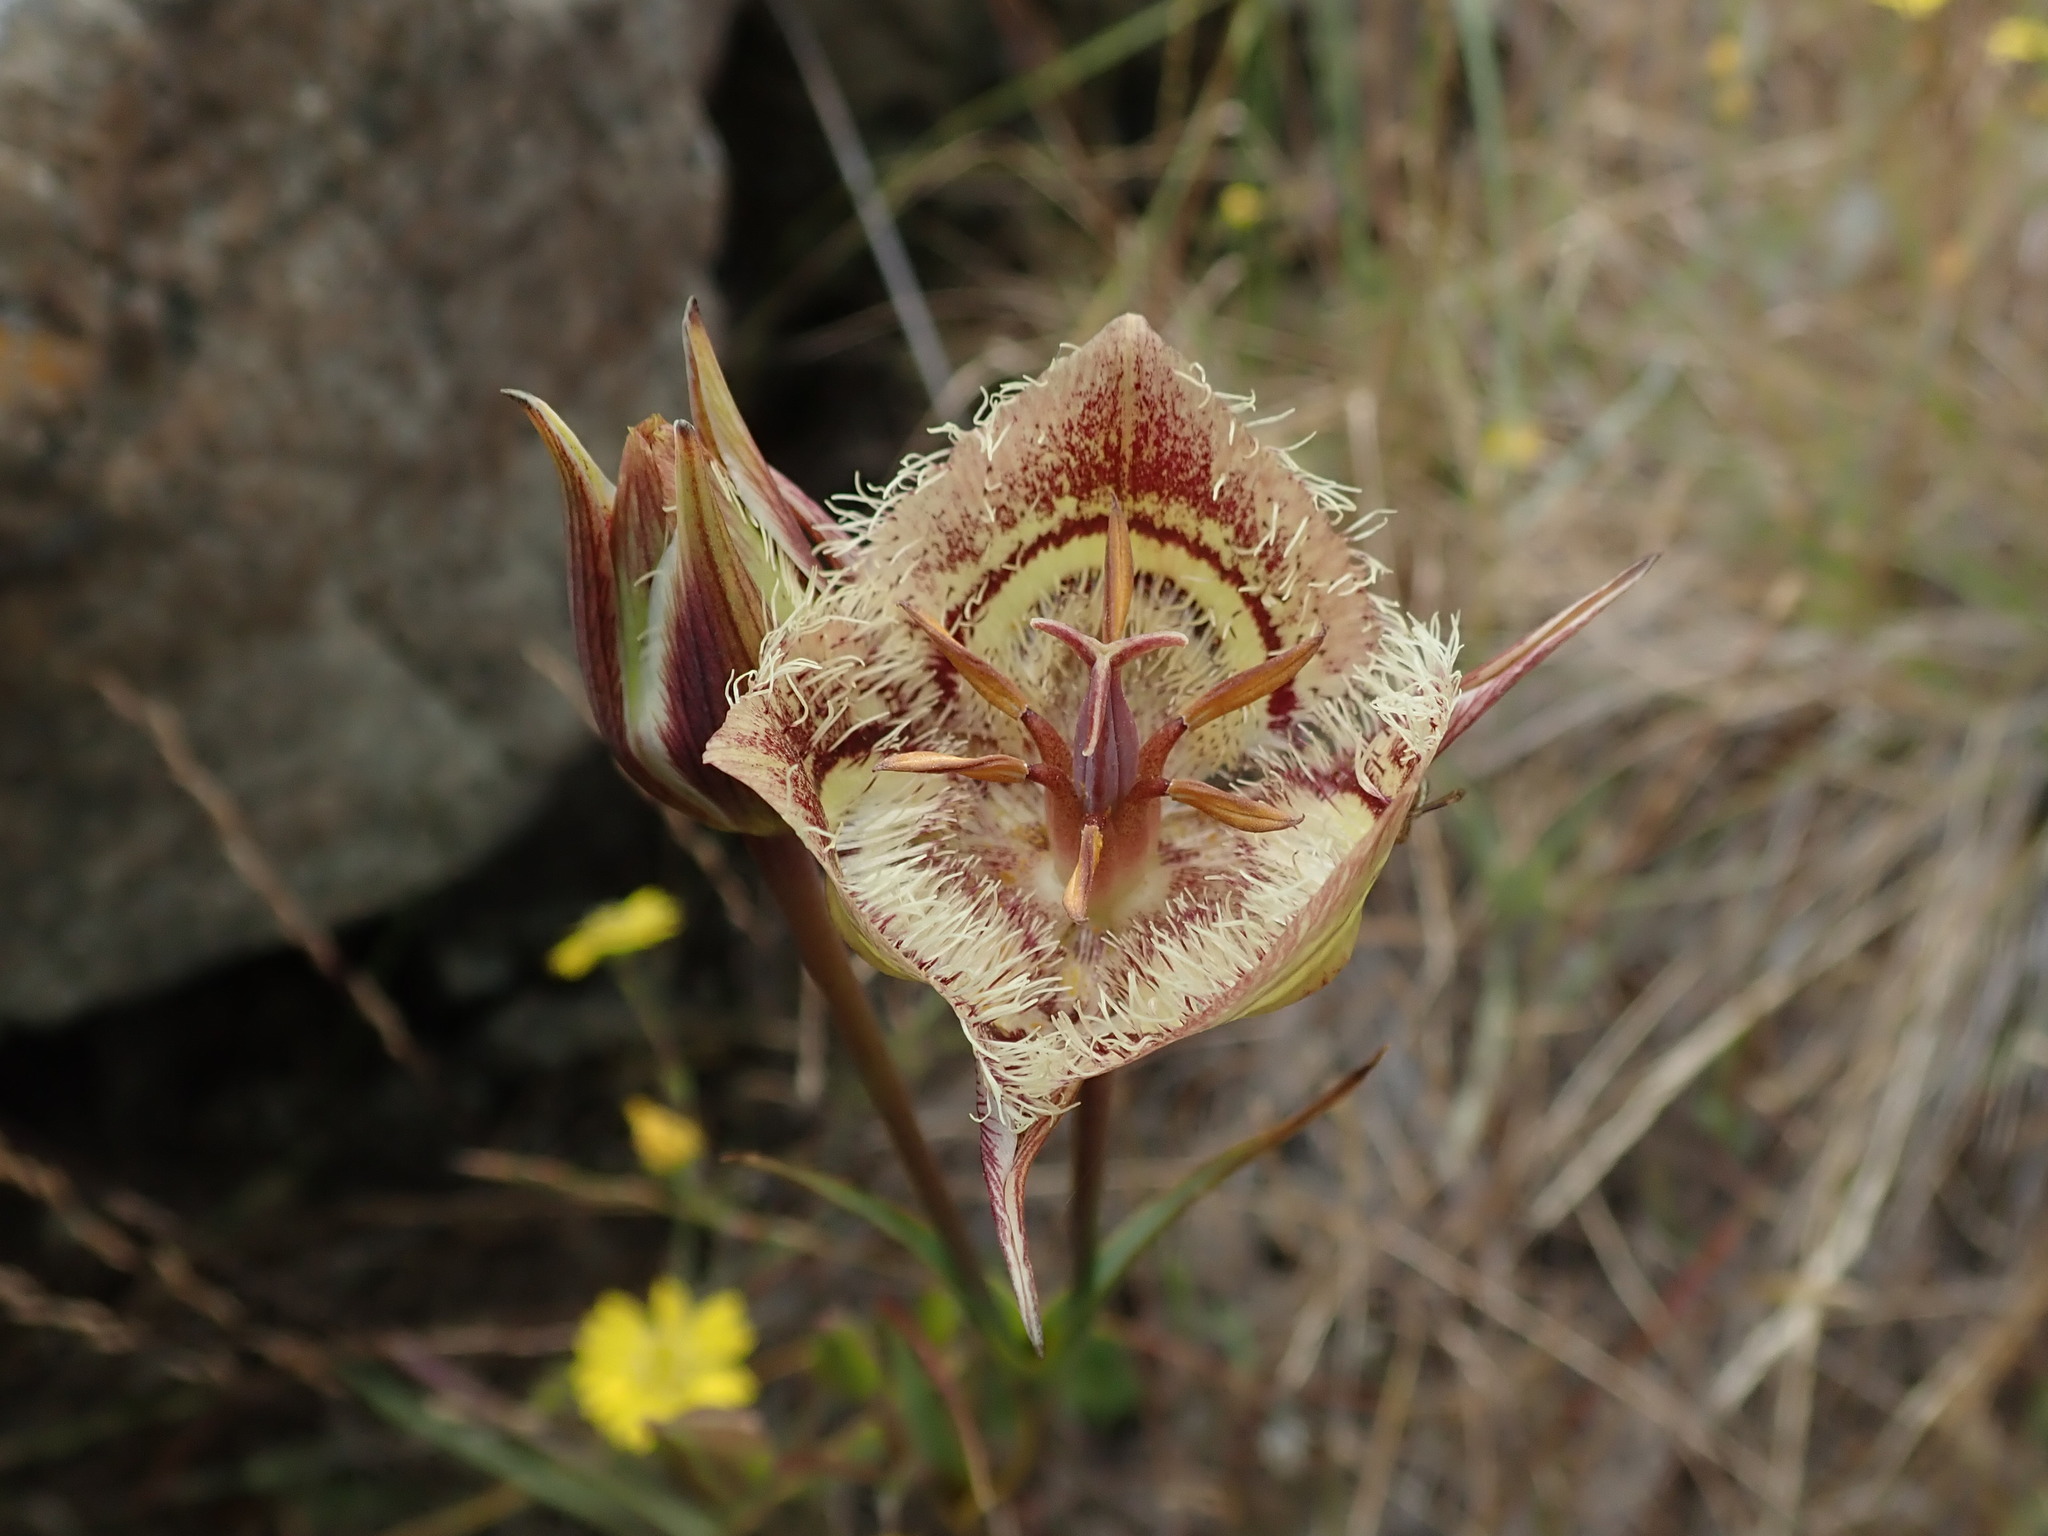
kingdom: Plantae
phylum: Tracheophyta
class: Liliopsida
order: Liliales
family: Liliaceae
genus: Calochortus
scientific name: Calochortus tiburonensis
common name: Tiburon mariposa-lily
